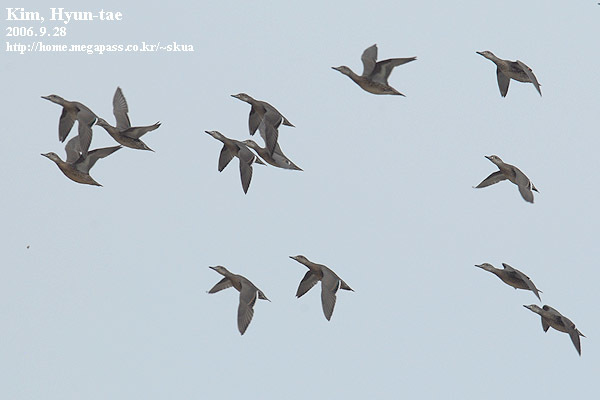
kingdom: Animalia
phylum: Chordata
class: Aves
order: Anseriformes
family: Anatidae
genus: Sibirionetta
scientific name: Sibirionetta formosa
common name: Baikal teal
